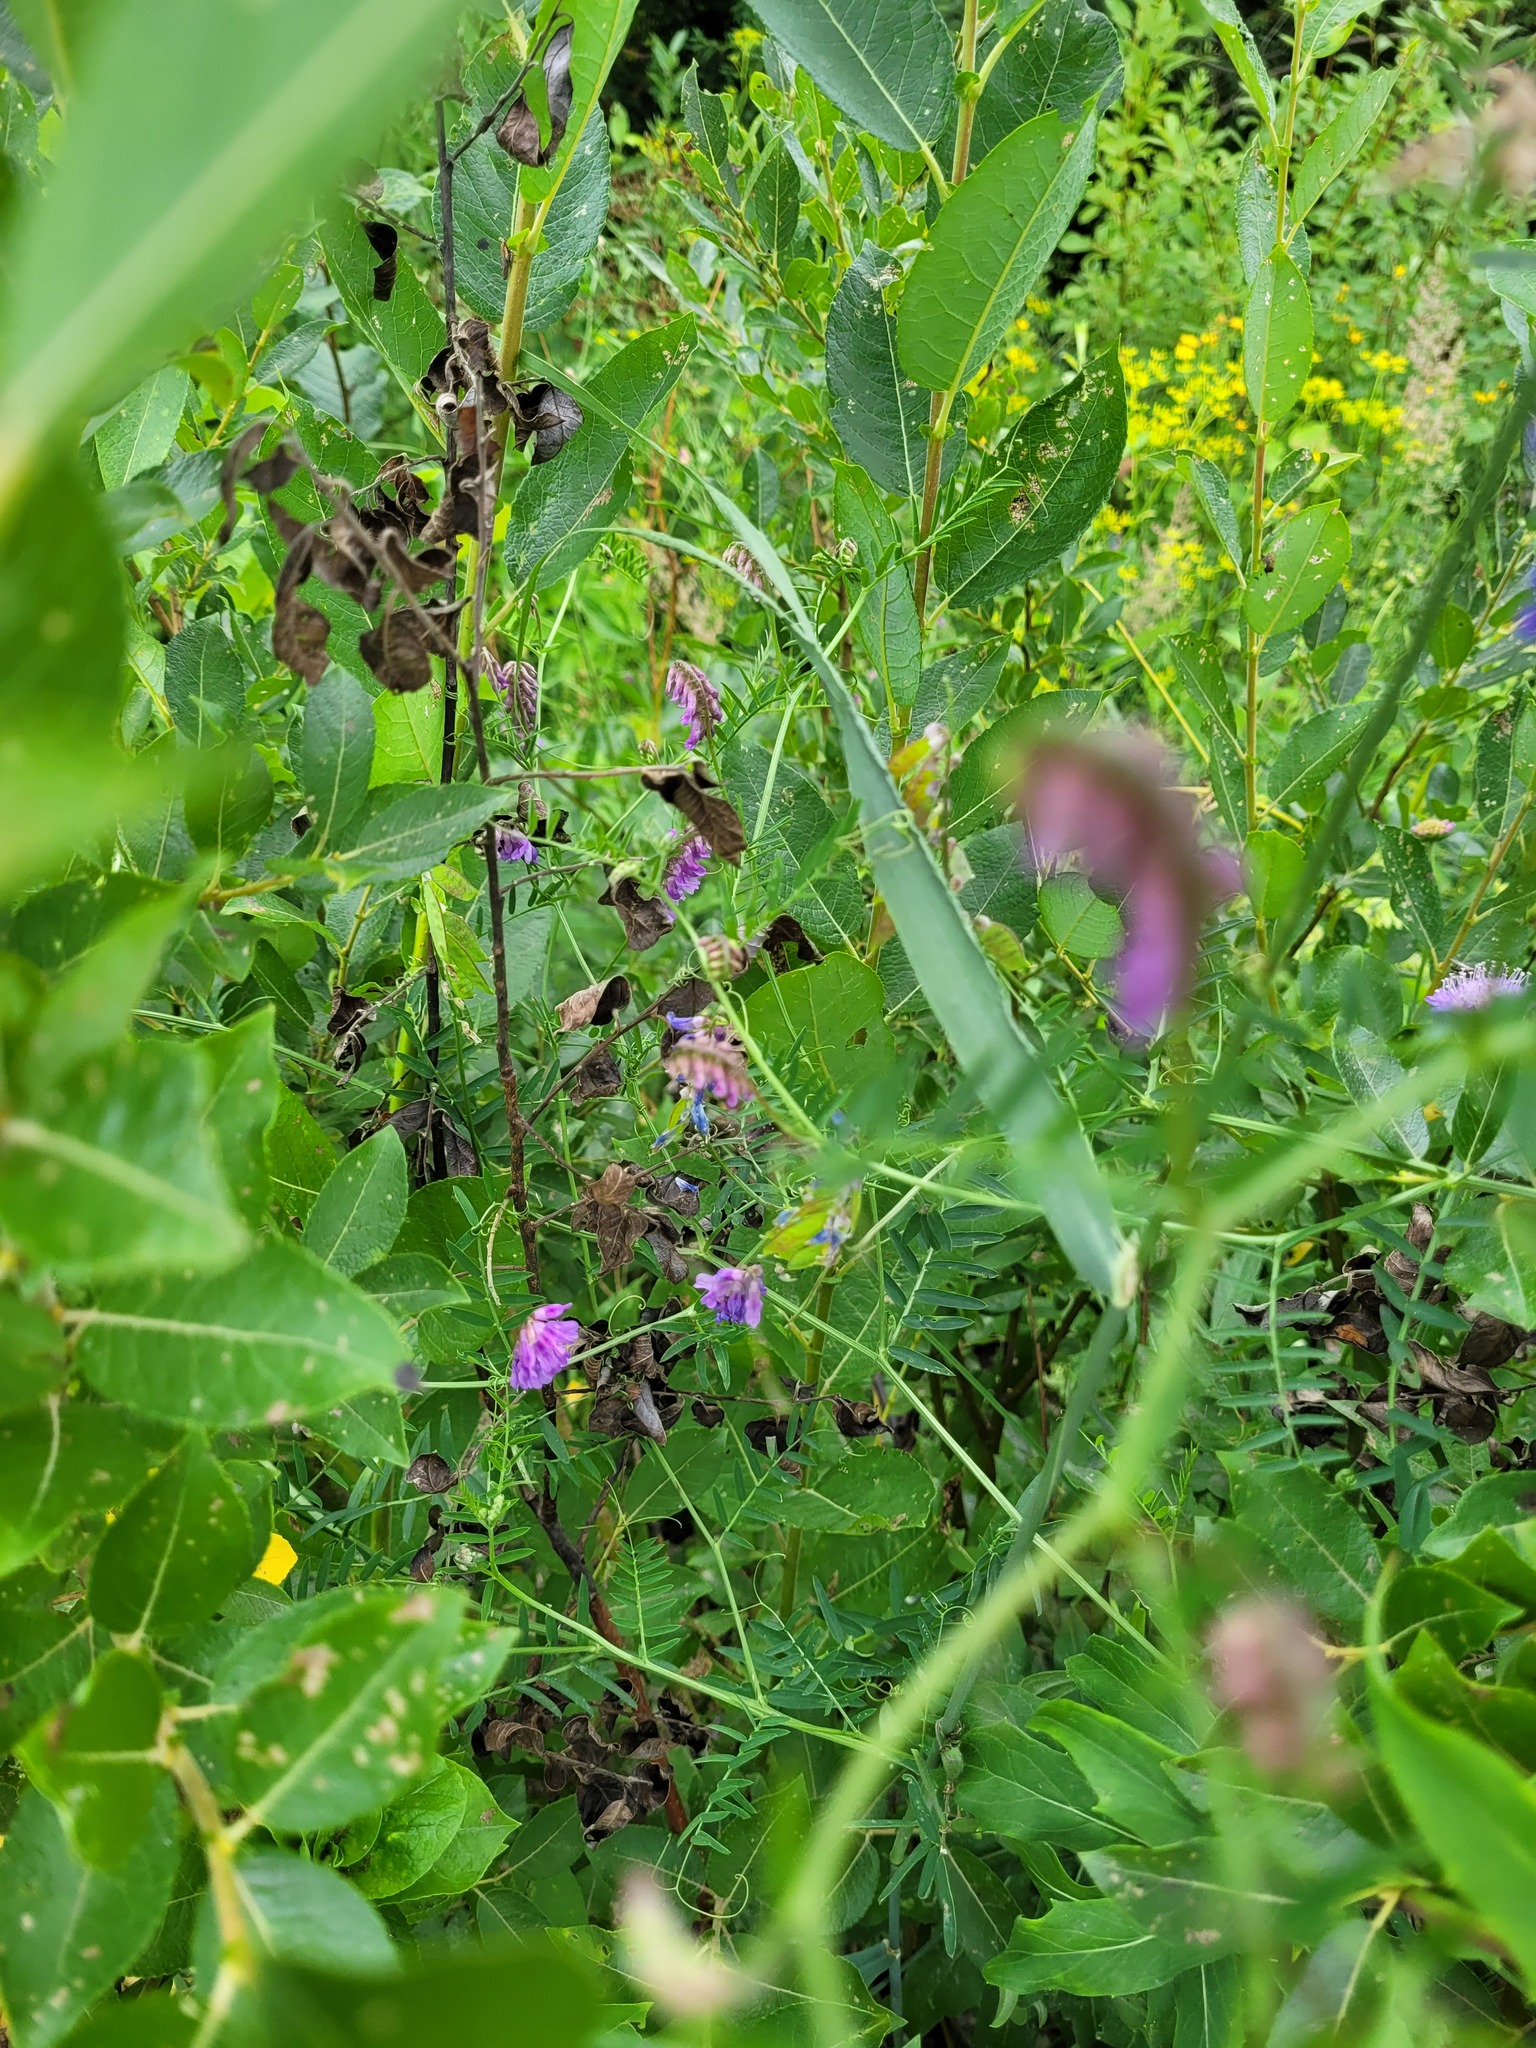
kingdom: Plantae
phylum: Tracheophyta
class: Magnoliopsida
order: Fabales
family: Fabaceae
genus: Vicia
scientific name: Vicia cracca
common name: Bird vetch
